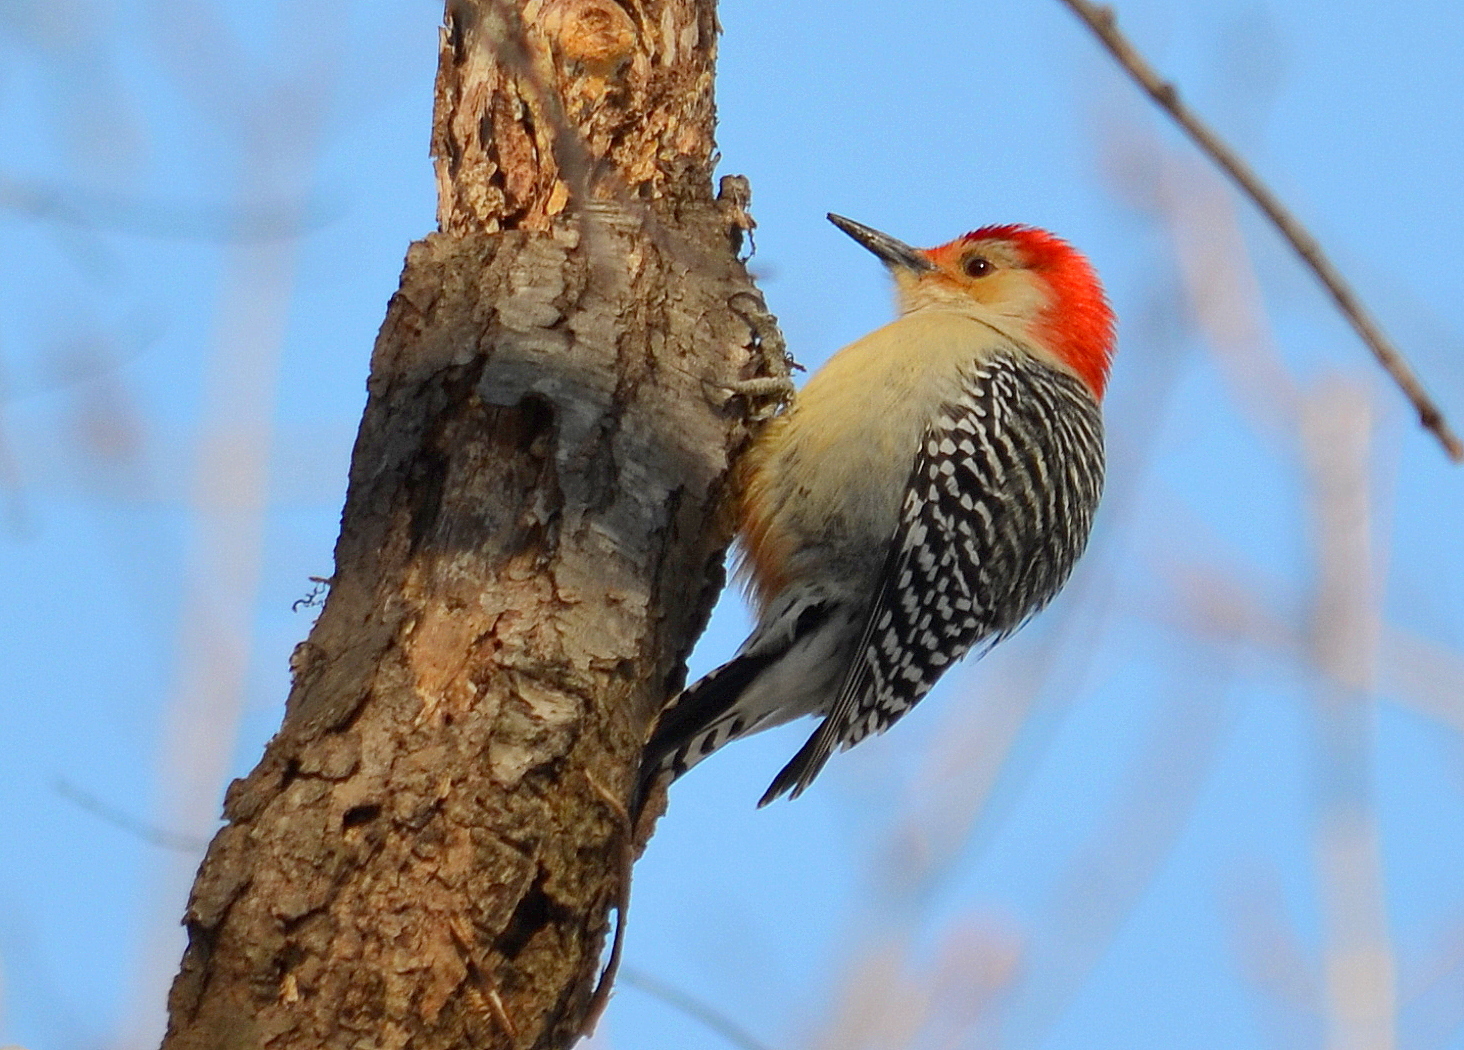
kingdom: Animalia
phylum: Chordata
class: Aves
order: Piciformes
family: Picidae
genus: Melanerpes
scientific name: Melanerpes carolinus
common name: Red-bellied woodpecker
